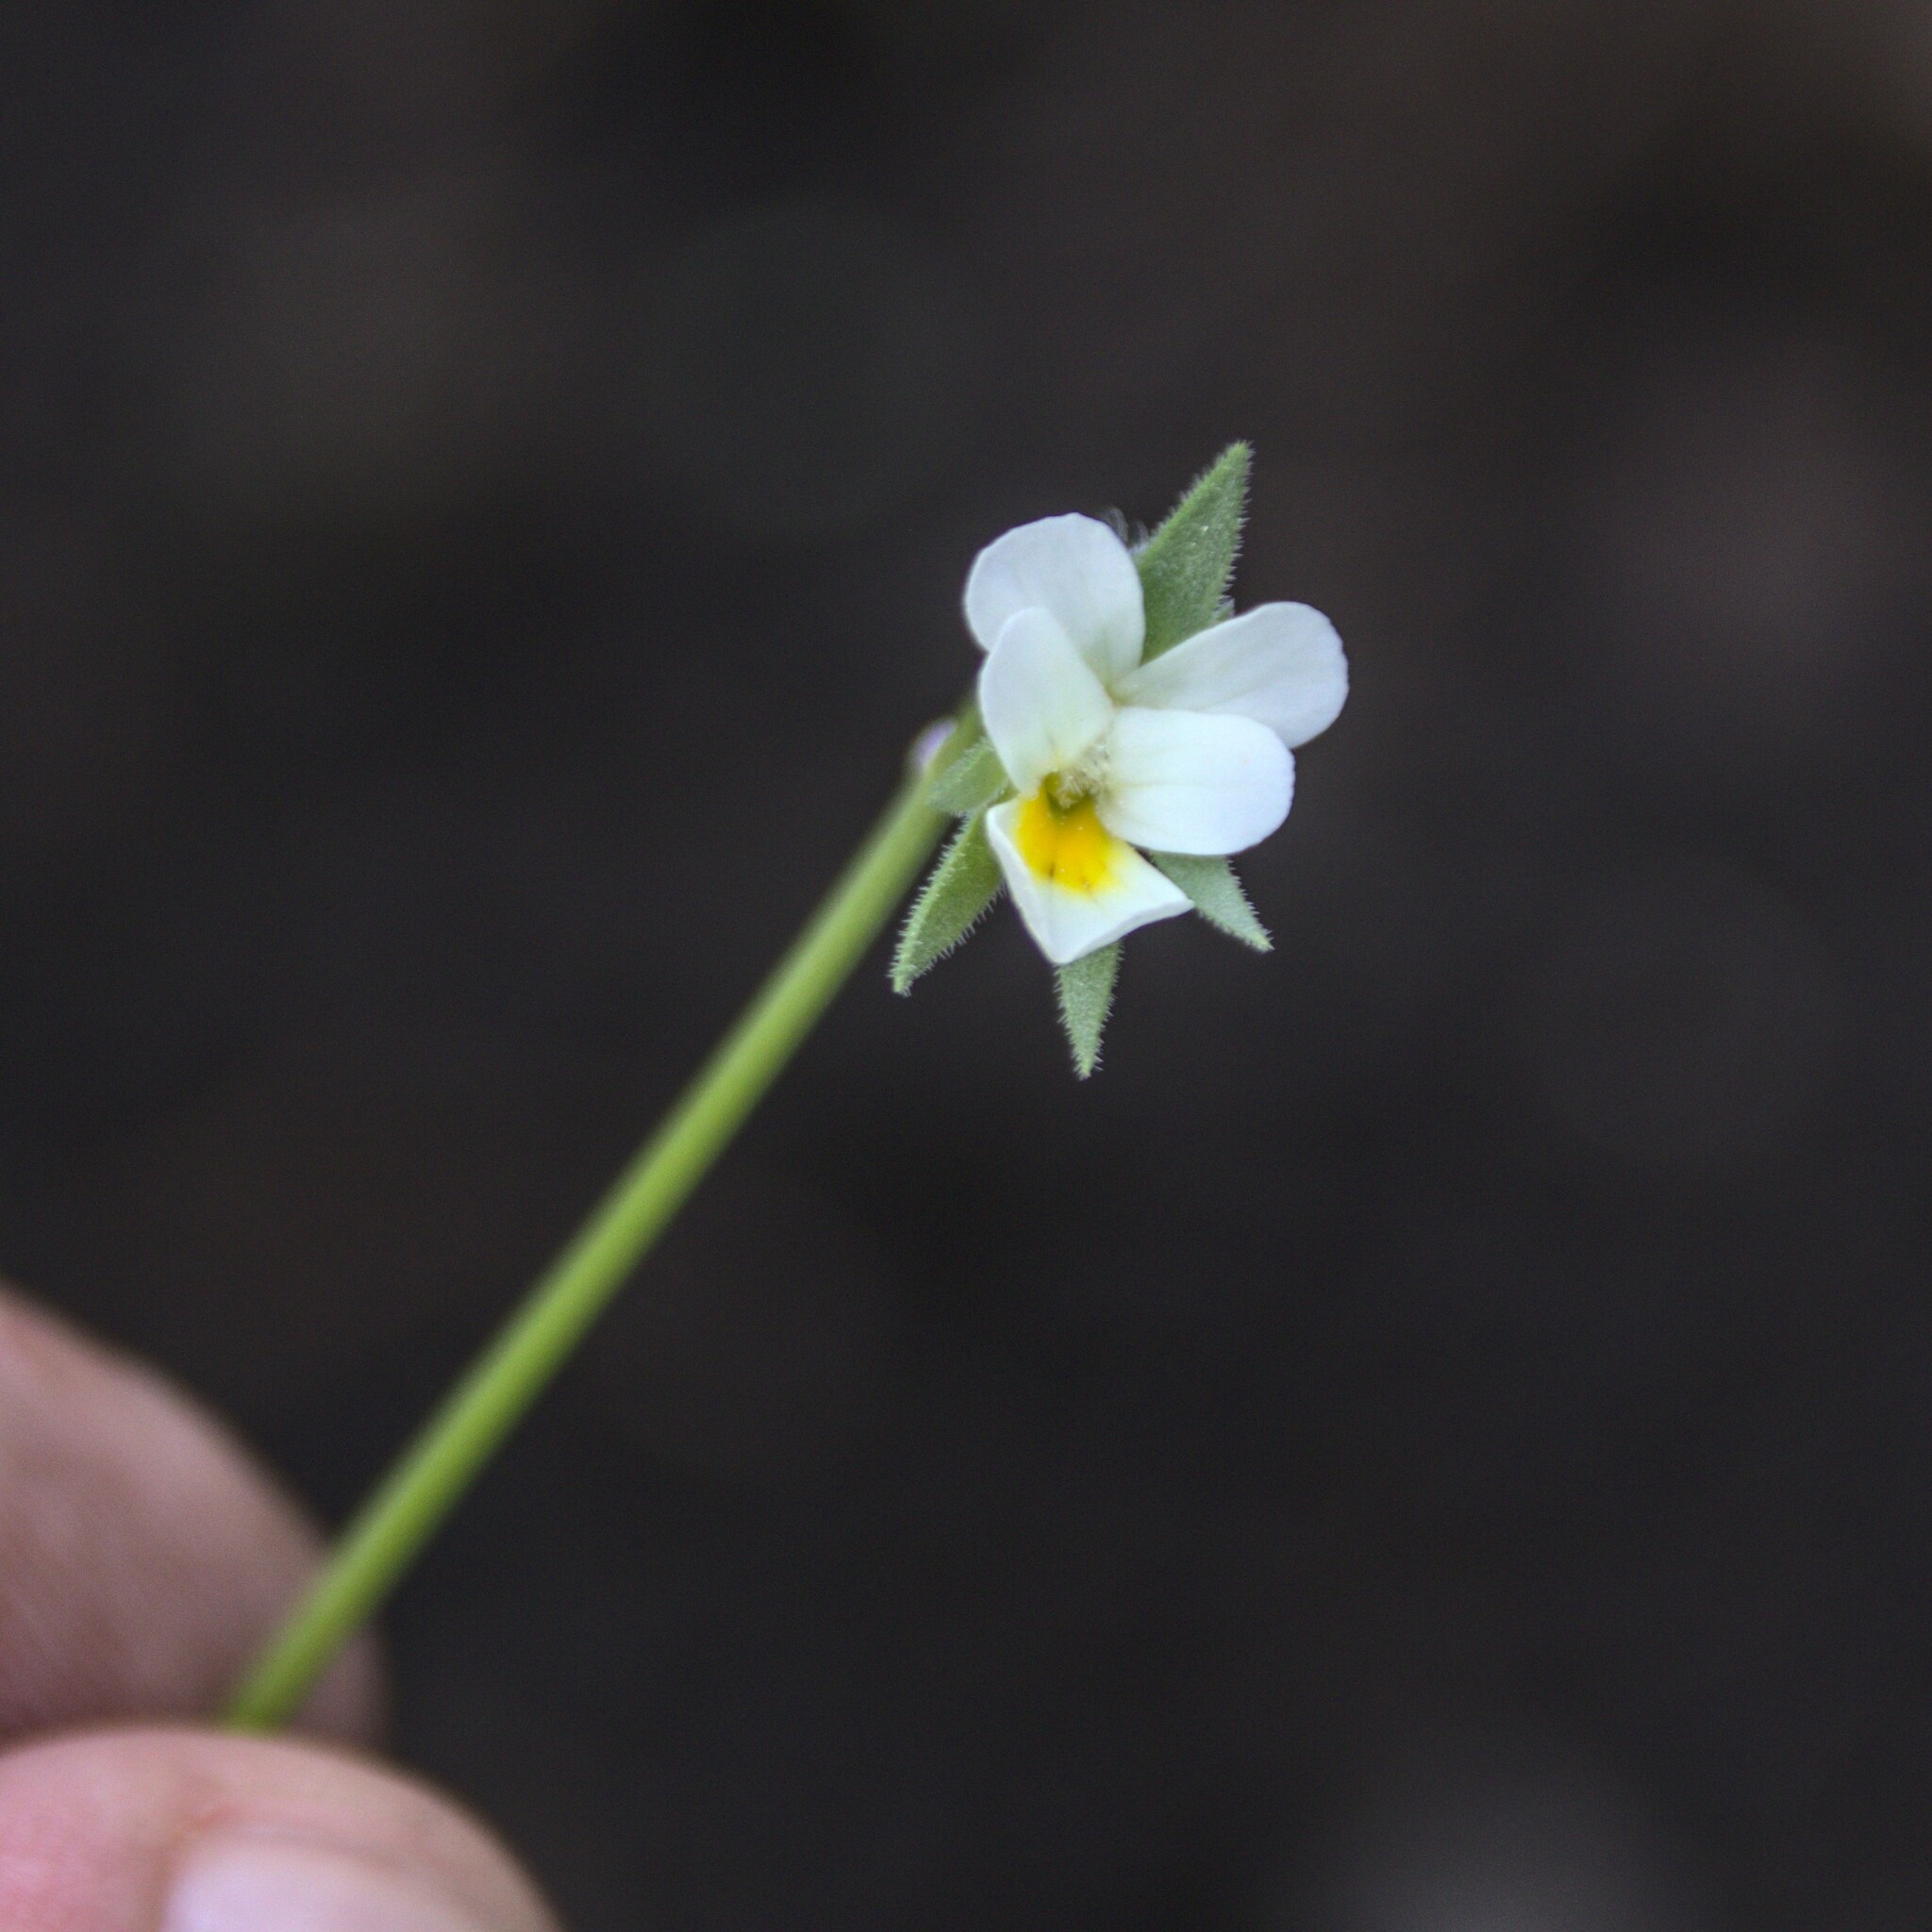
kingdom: Plantae
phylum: Tracheophyta
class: Magnoliopsida
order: Malpighiales
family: Violaceae
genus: Viola
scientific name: Viola arvensis
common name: Field pansy
